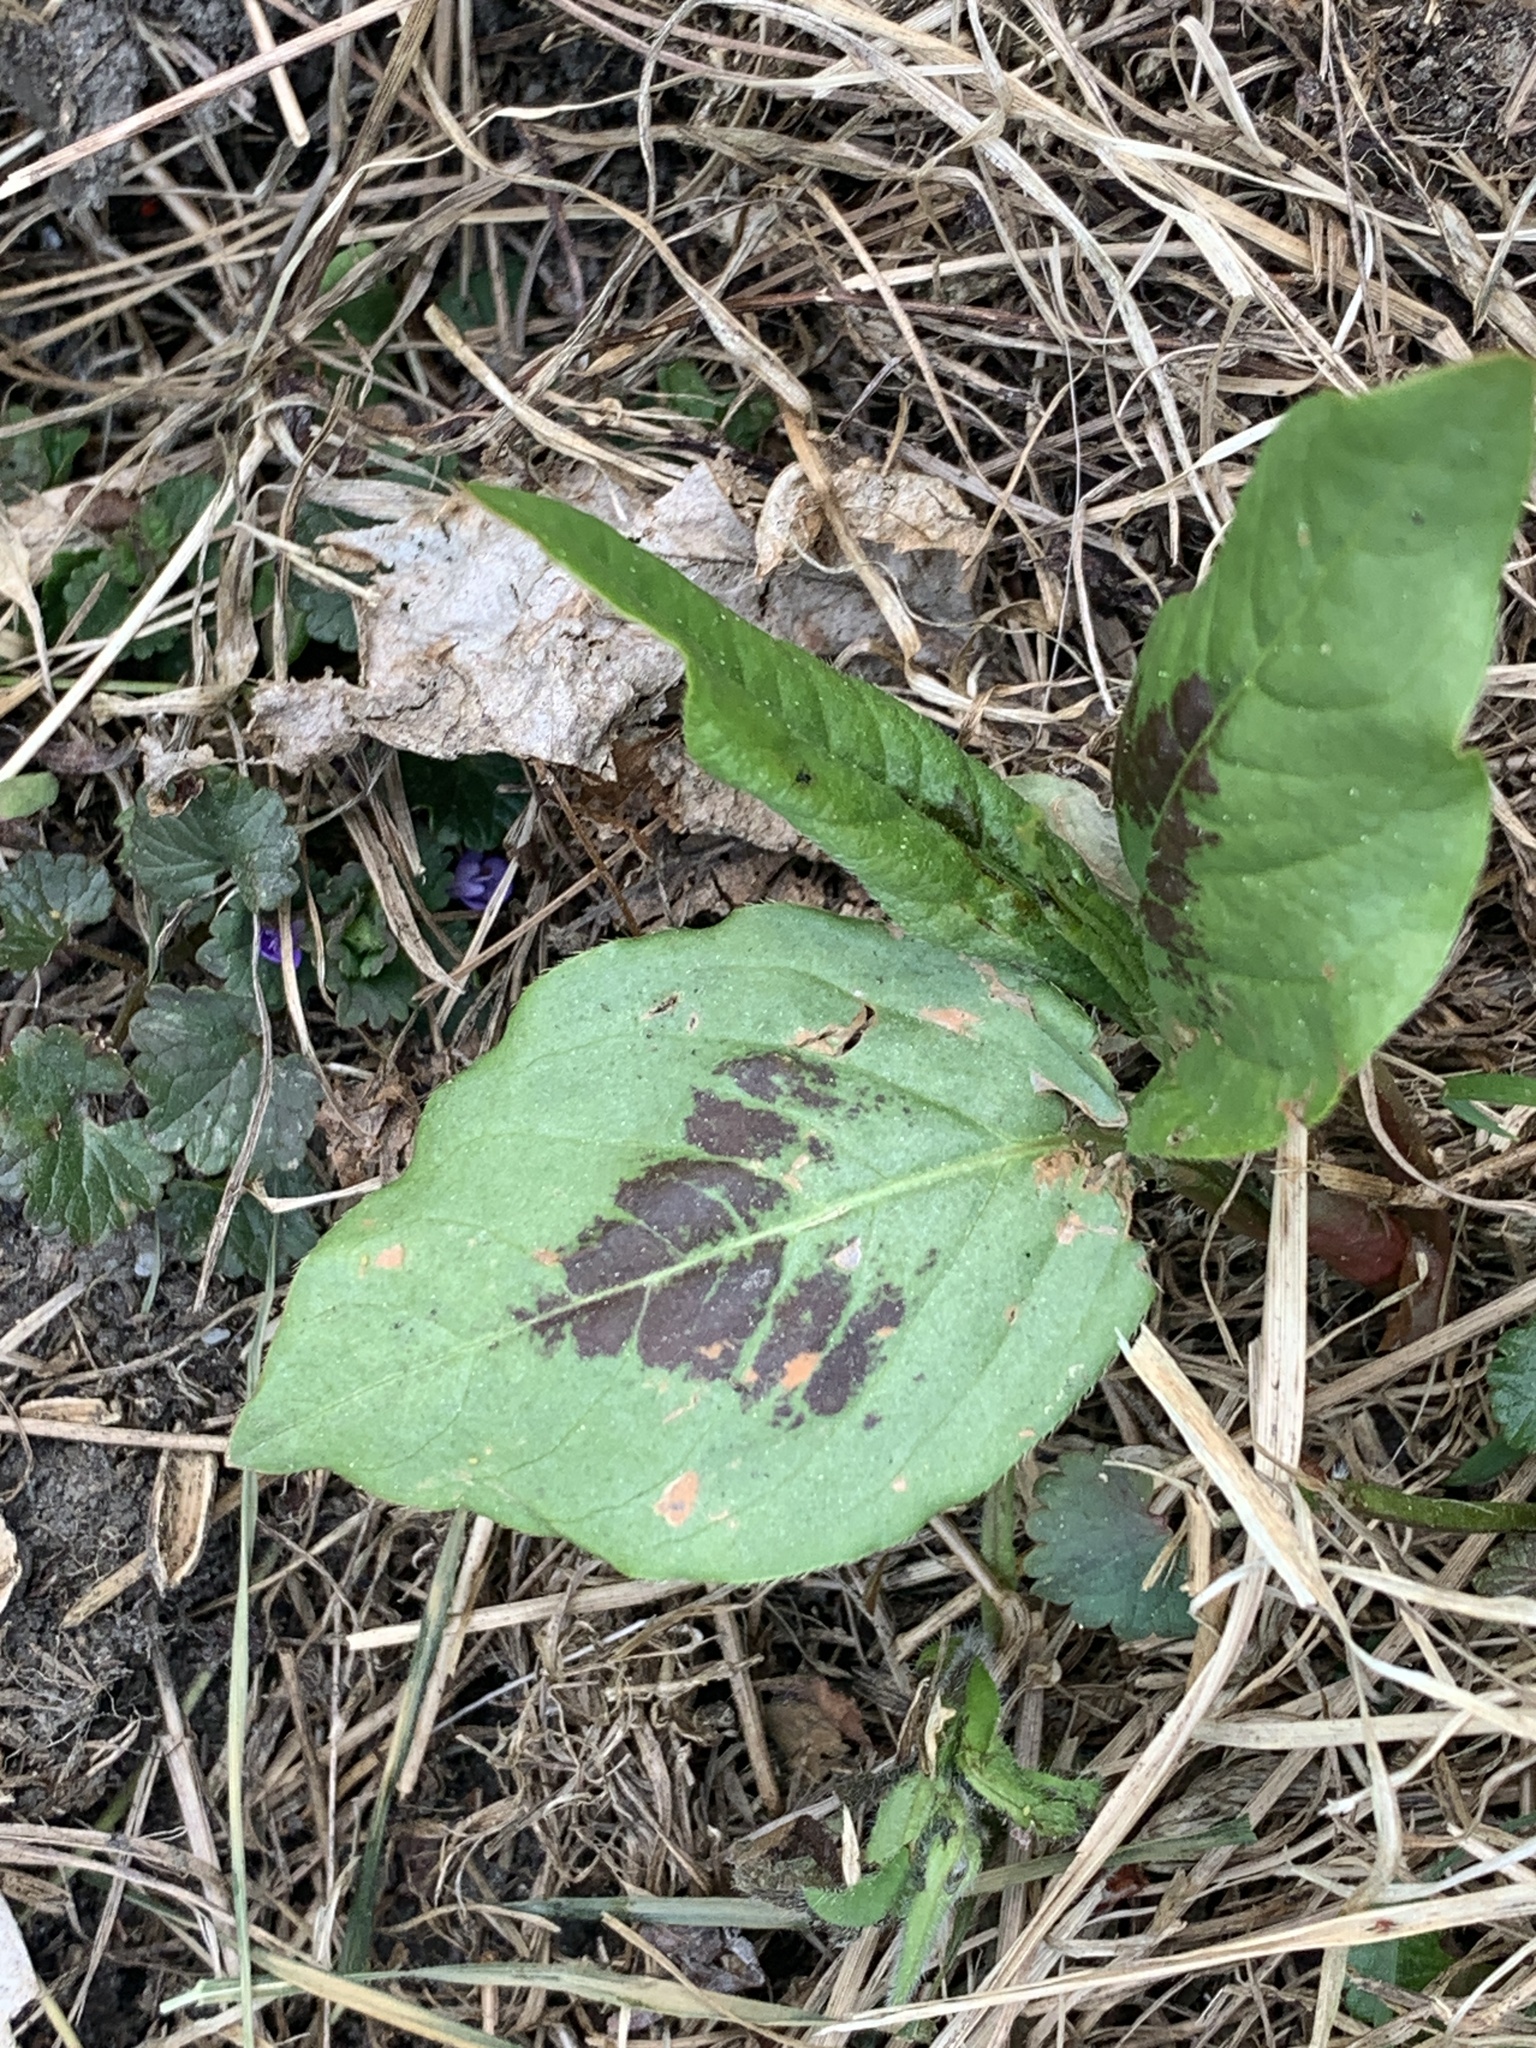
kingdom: Plantae
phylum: Tracheophyta
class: Magnoliopsida
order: Caryophyllales
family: Polygonaceae
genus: Persicaria
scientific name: Persicaria virginiana
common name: Jumpseed
